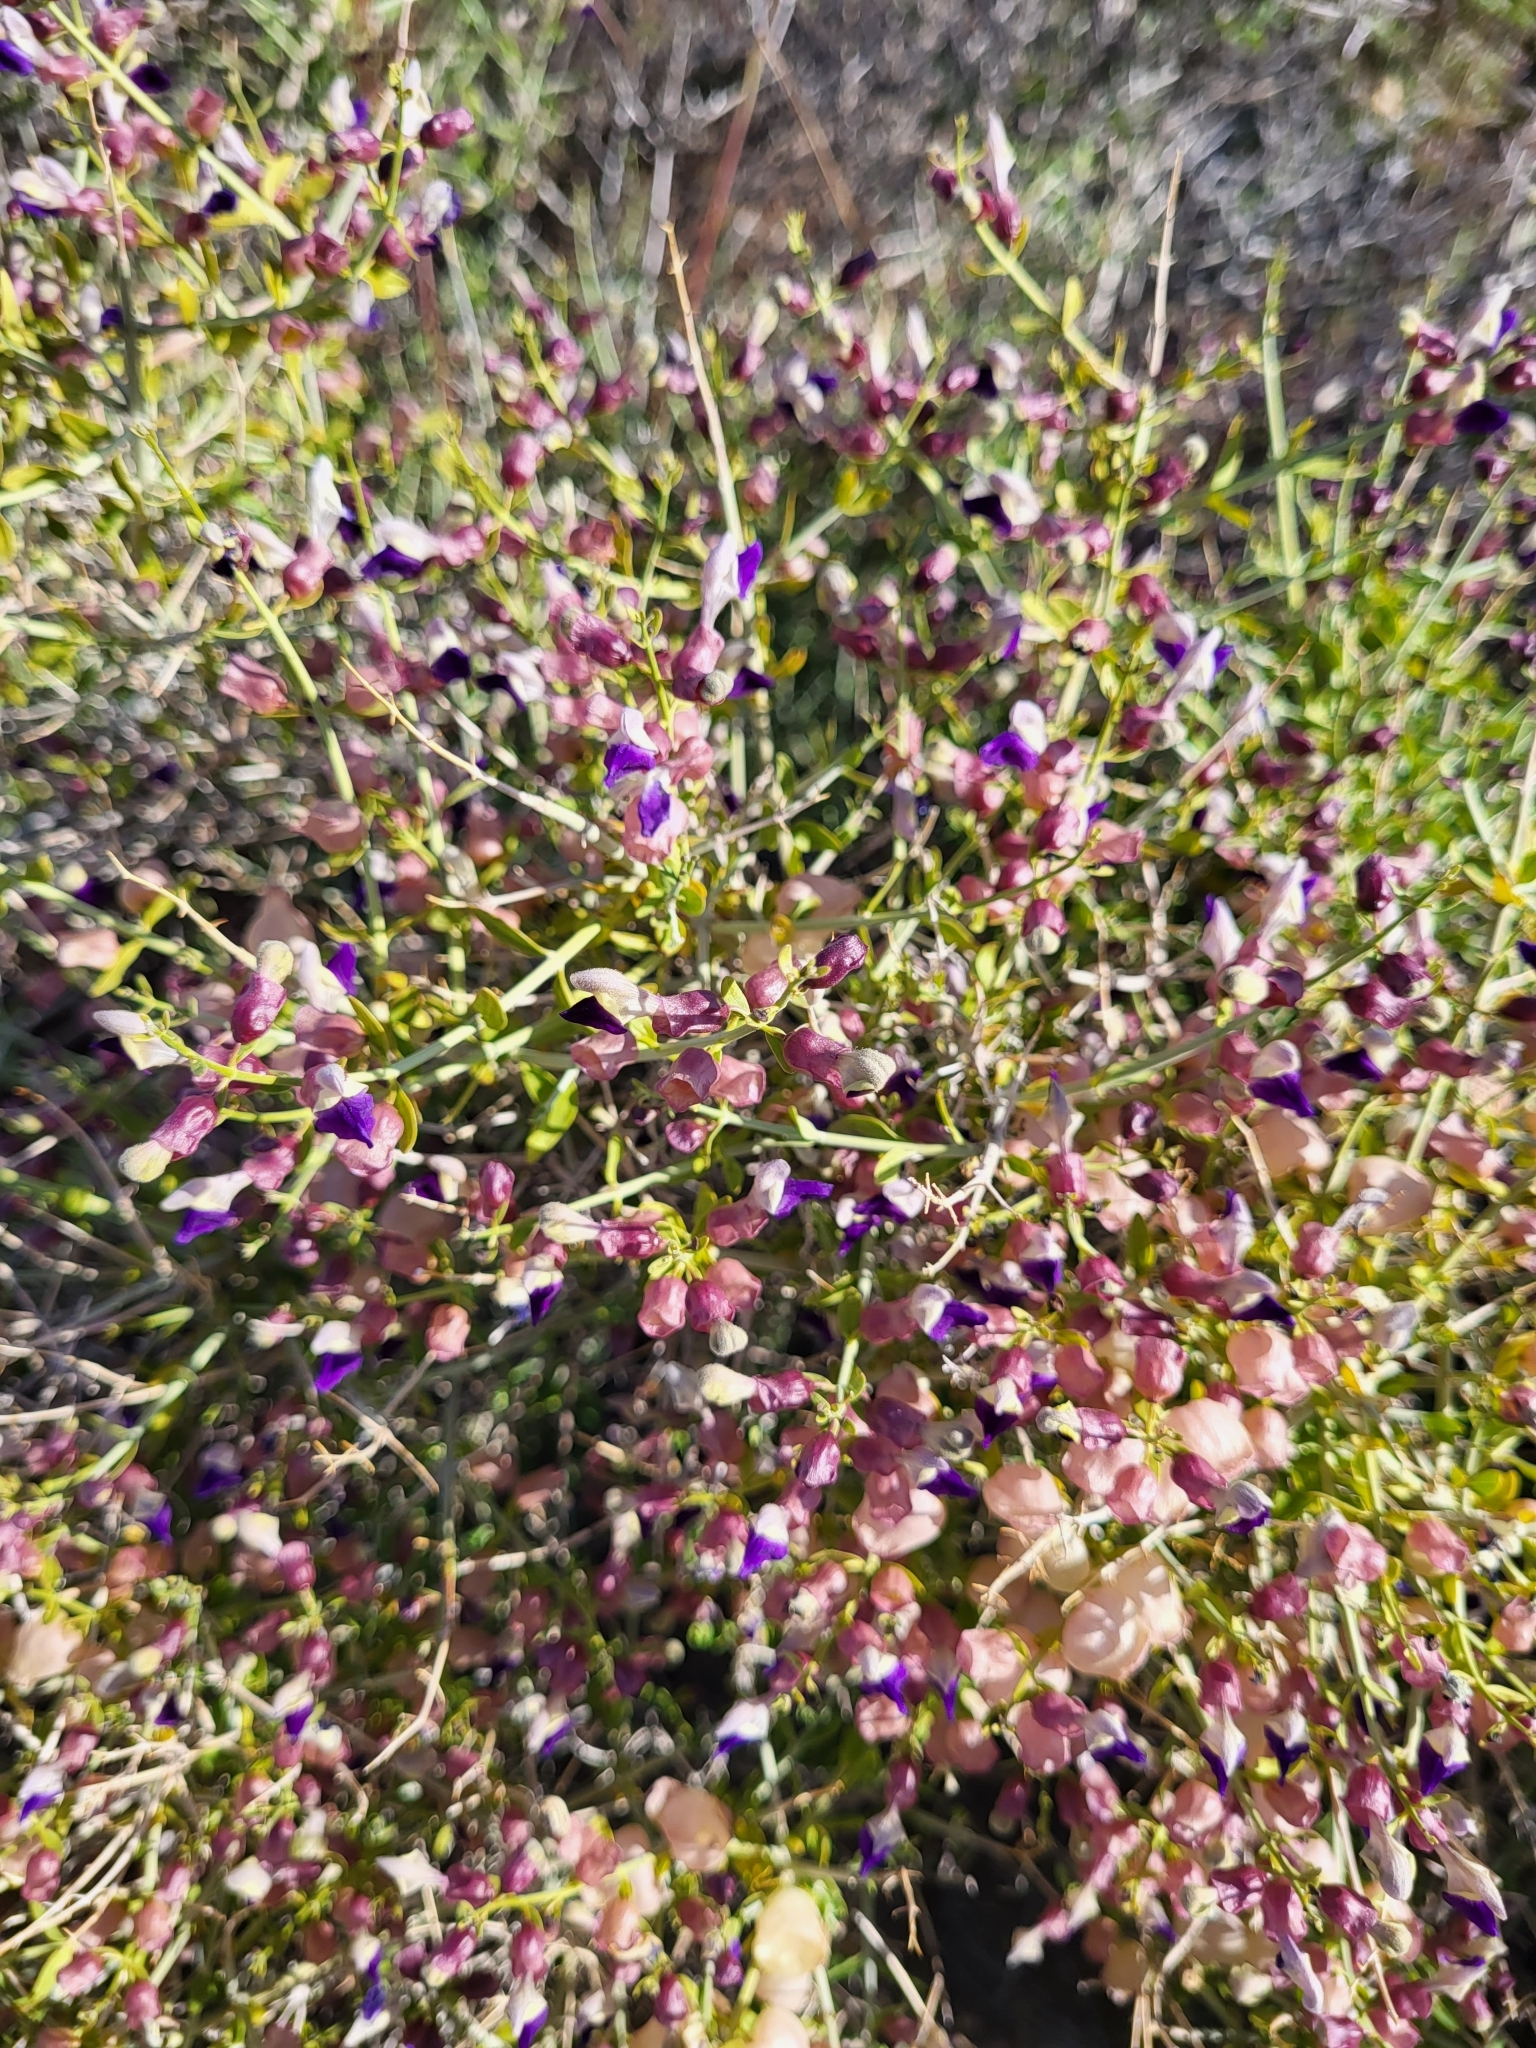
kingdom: Plantae
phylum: Tracheophyta
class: Magnoliopsida
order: Lamiales
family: Lamiaceae
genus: Scutellaria
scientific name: Scutellaria mexicana
